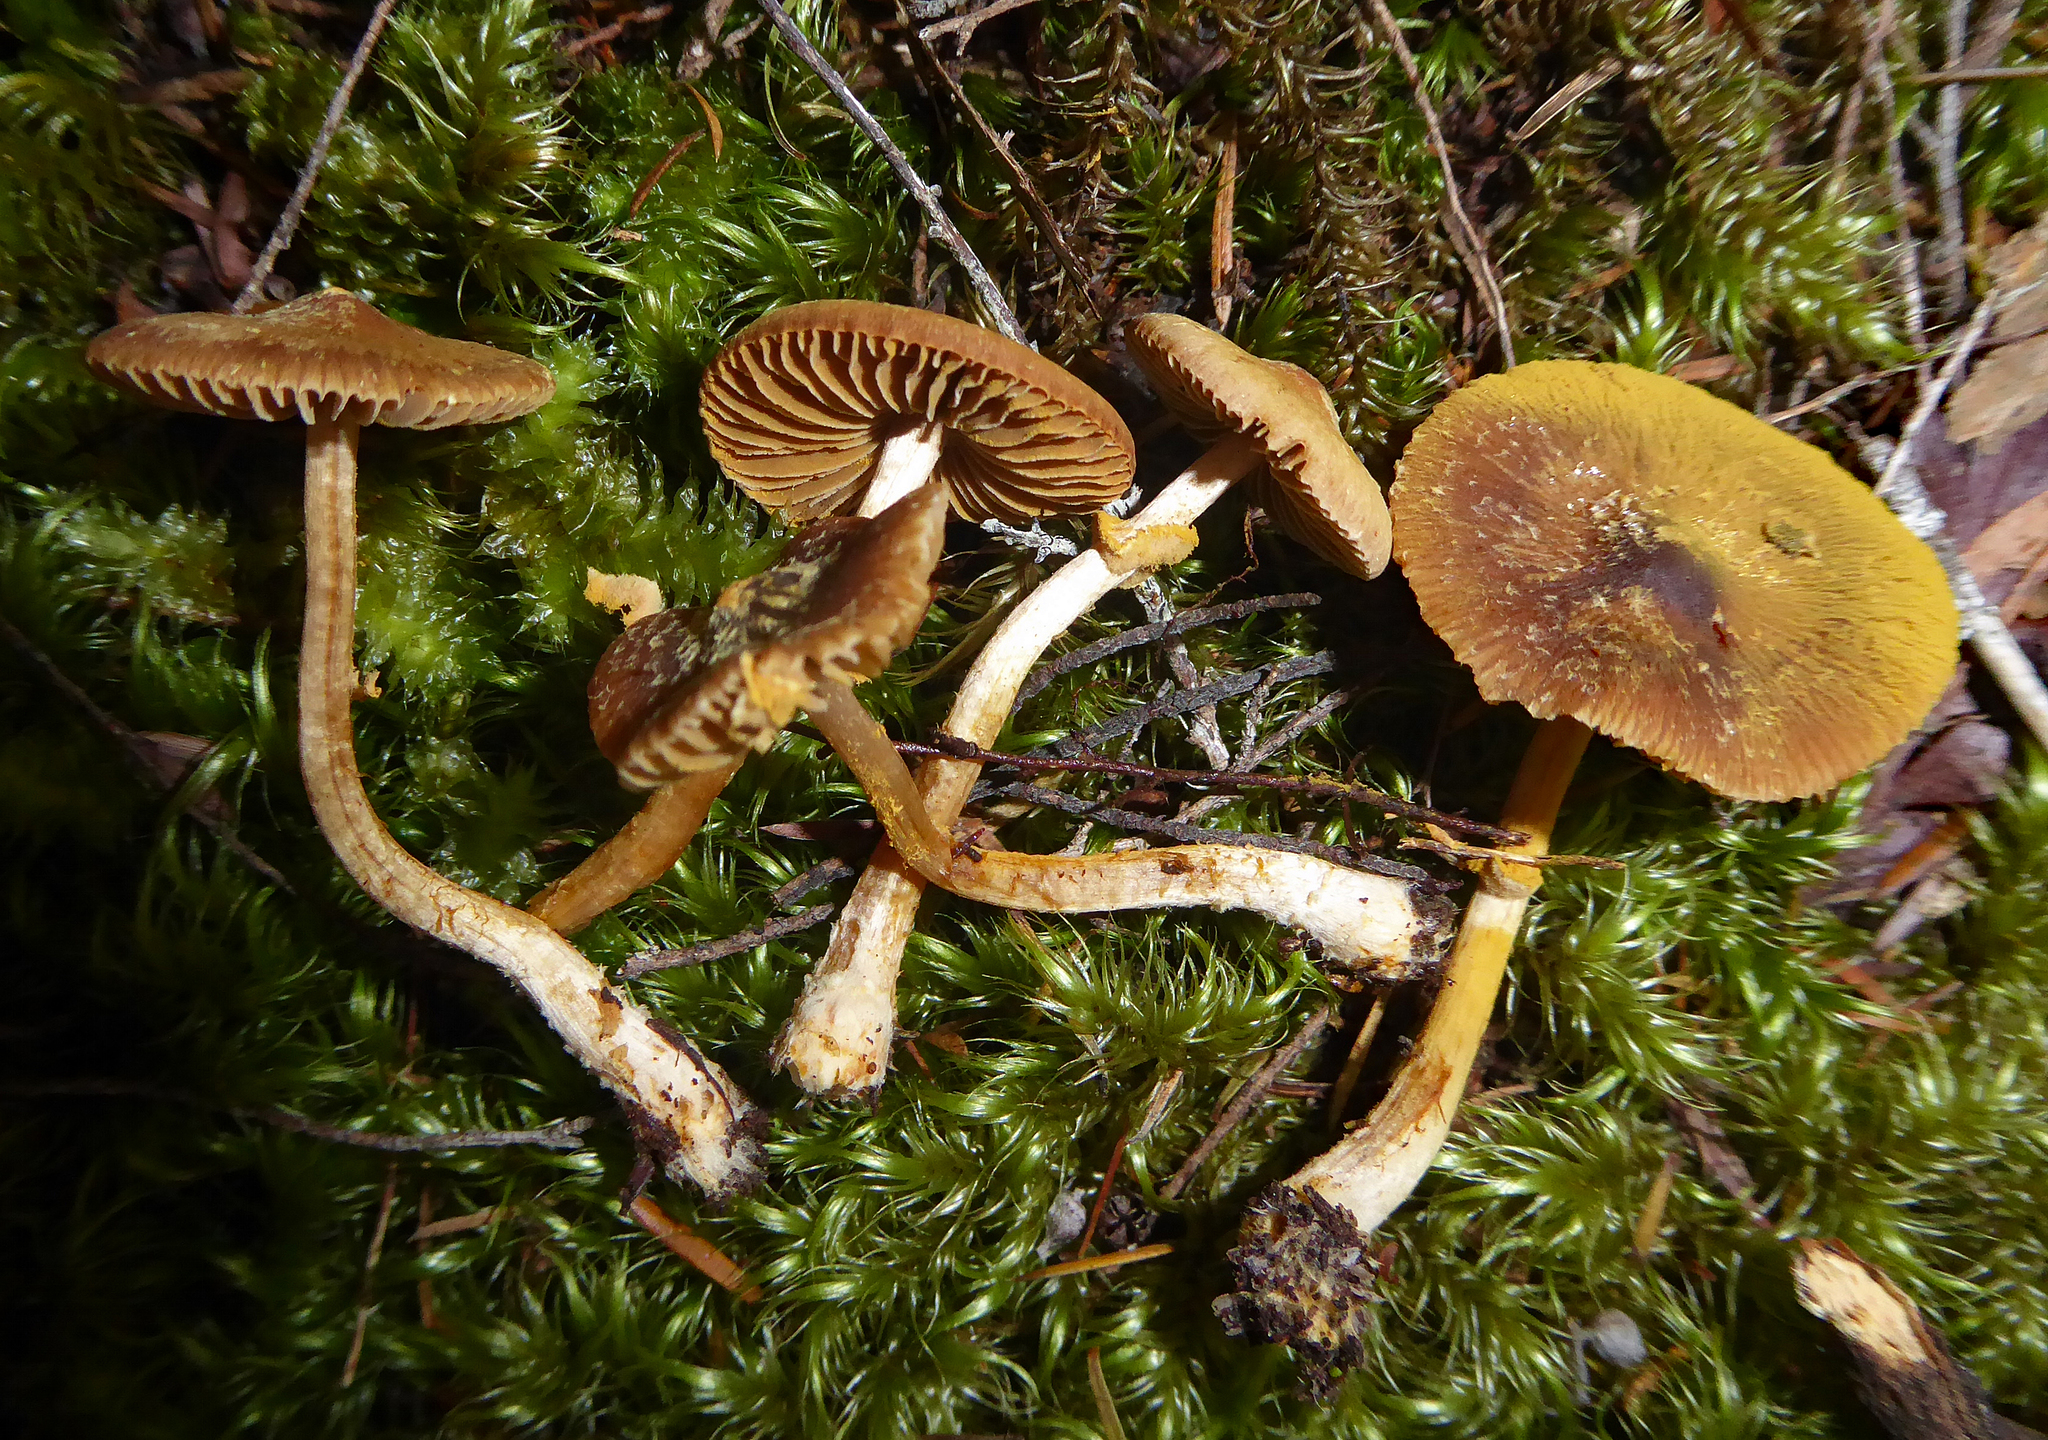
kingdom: Fungi
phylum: Basidiomycota
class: Agaricomycetes
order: Agaricales
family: Bolbitiaceae
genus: Descolea
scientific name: Descolea
